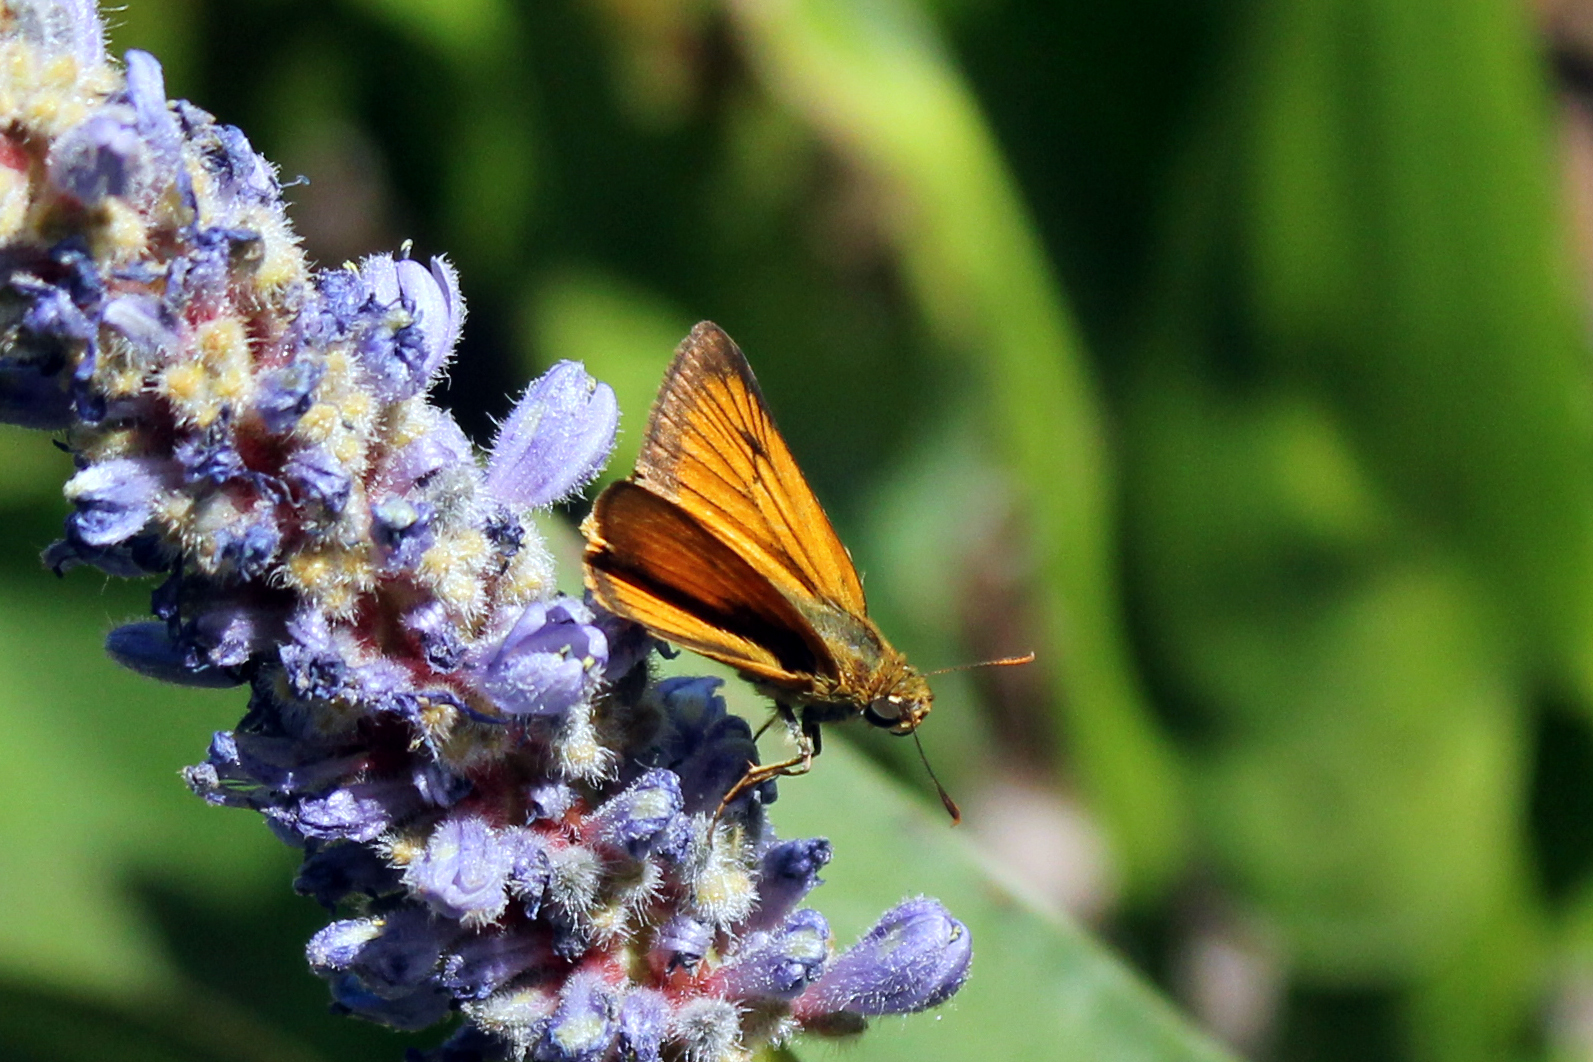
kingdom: Animalia
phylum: Arthropoda
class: Insecta
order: Lepidoptera
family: Hesperiidae
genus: Atrytone
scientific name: Atrytone delaware
